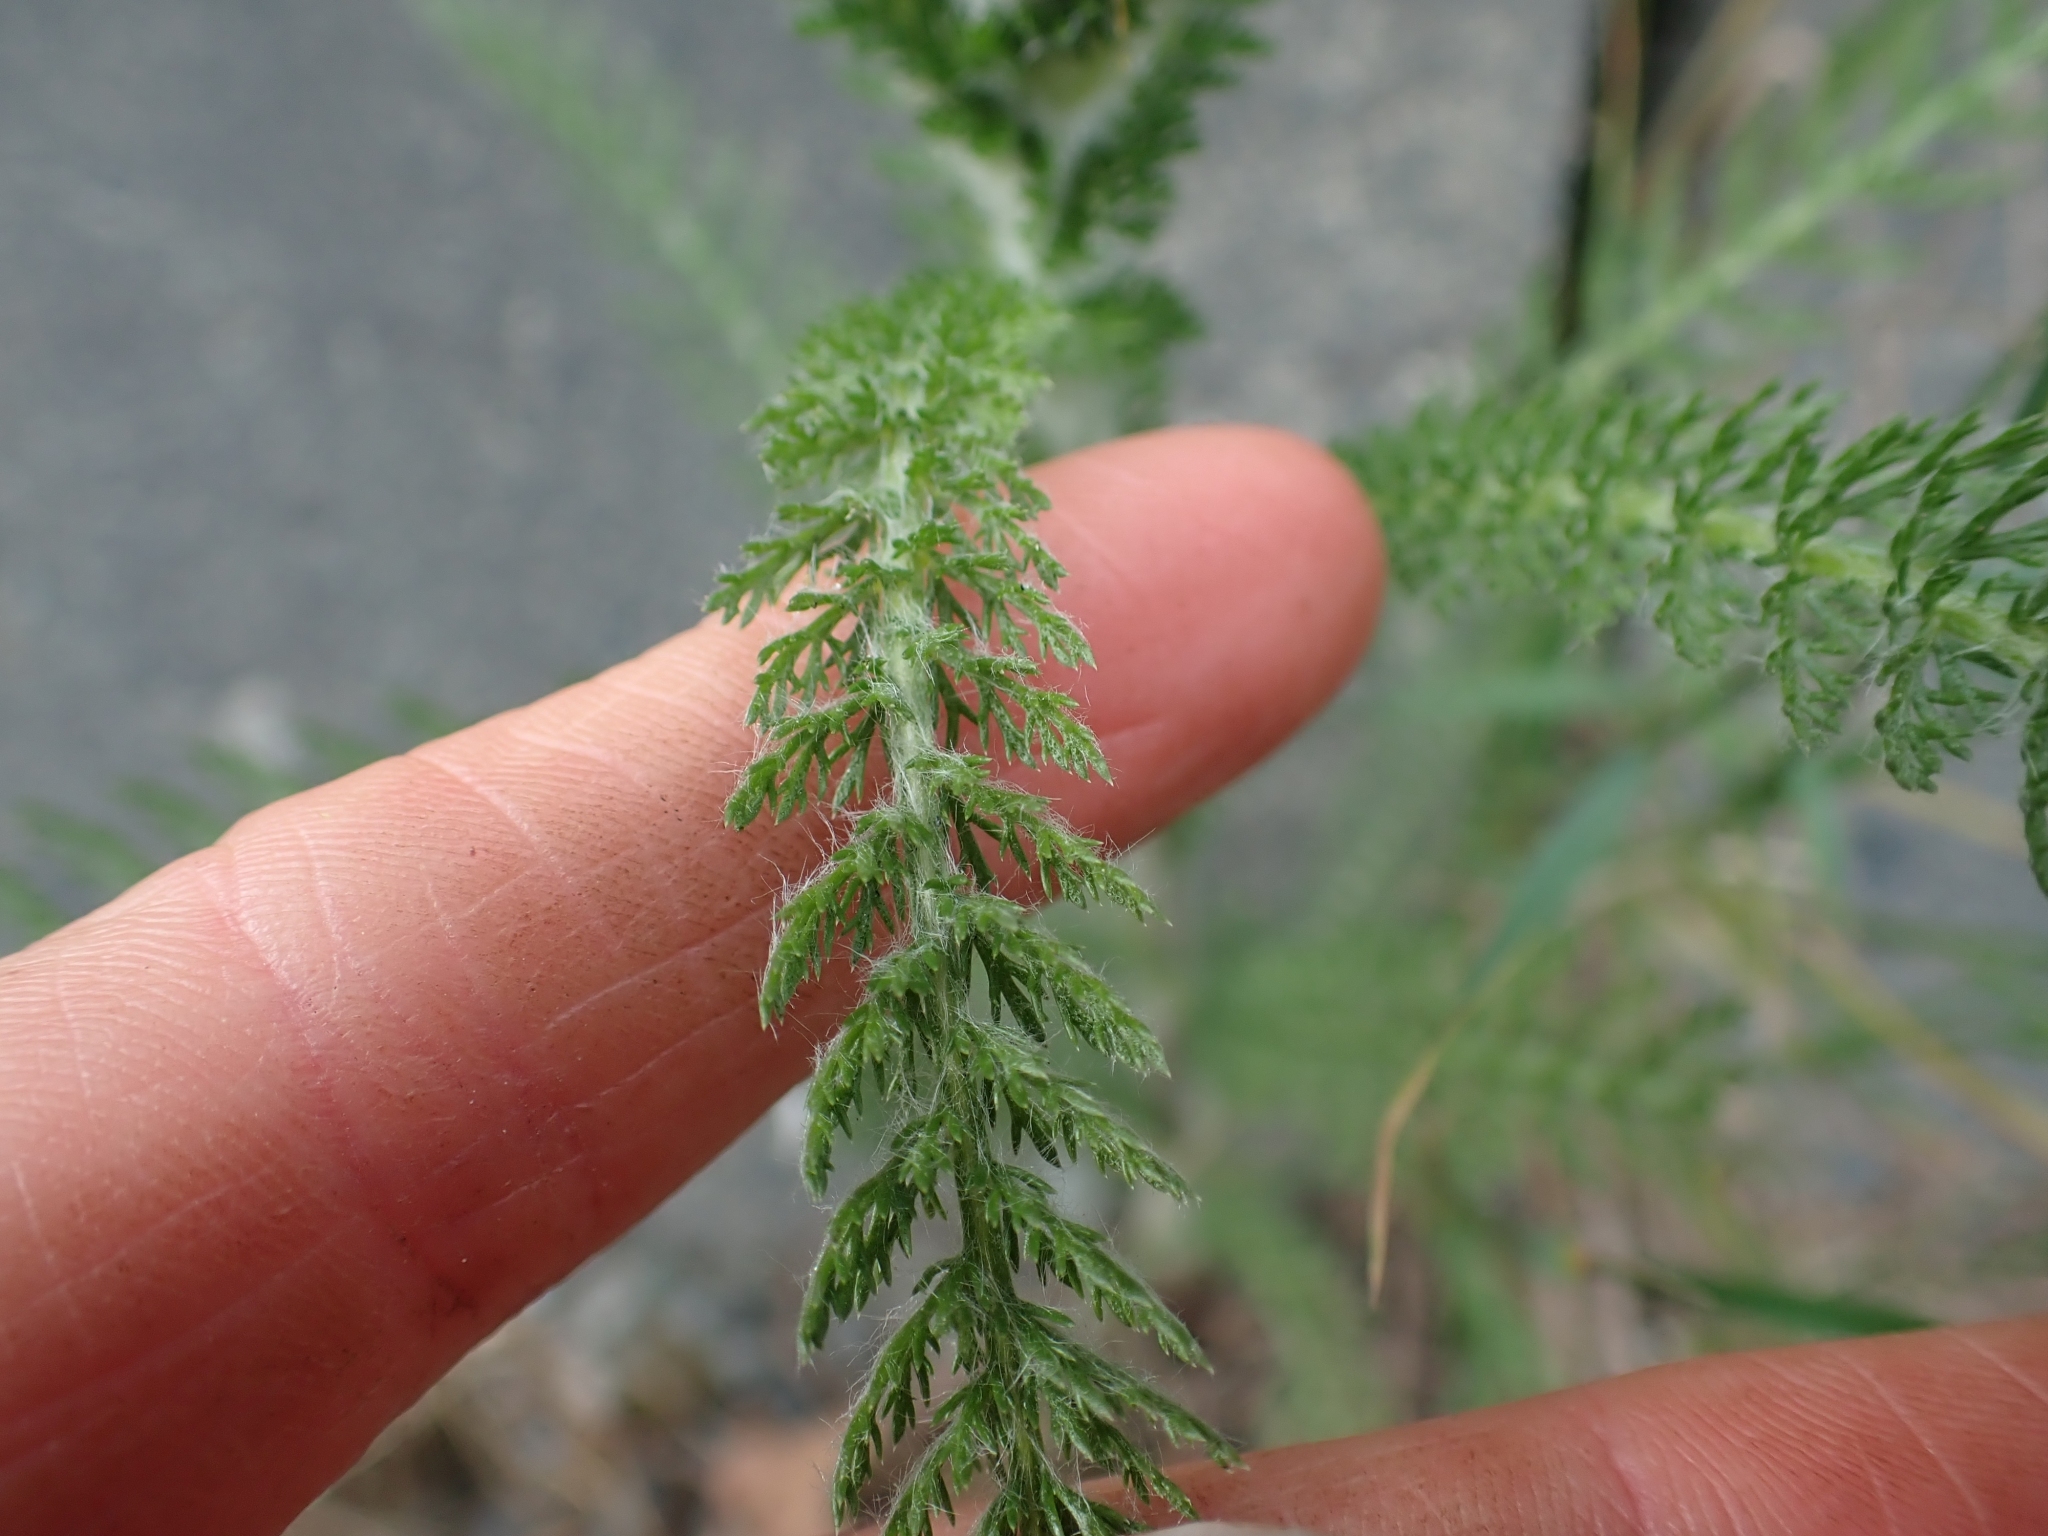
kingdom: Plantae
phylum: Tracheophyta
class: Magnoliopsida
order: Asterales
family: Asteraceae
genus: Achillea
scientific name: Achillea millefolium
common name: Yarrow
